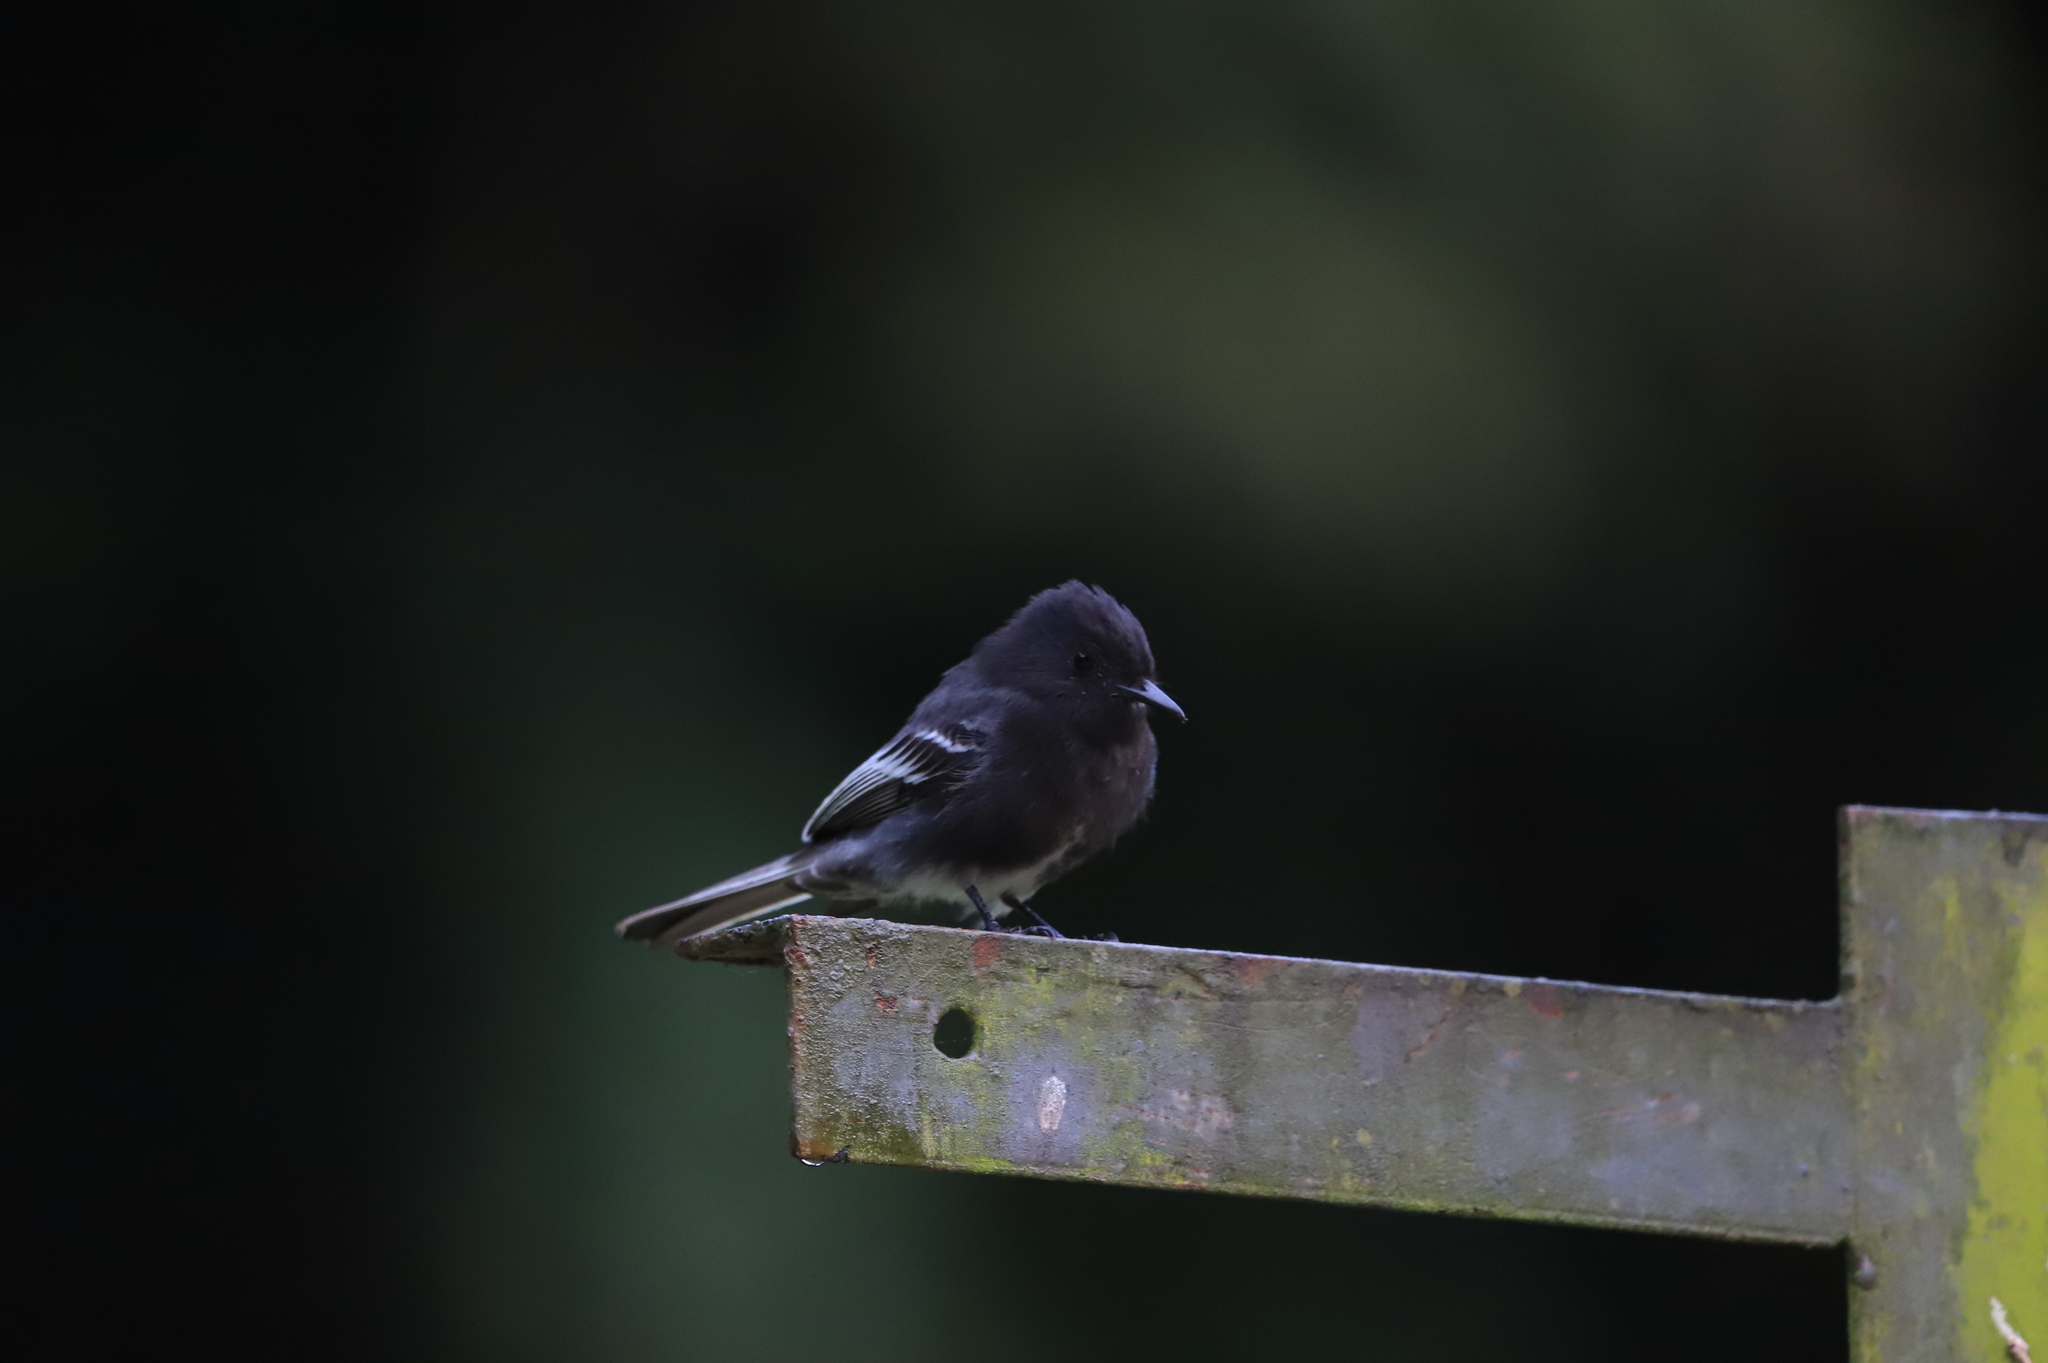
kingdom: Animalia
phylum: Chordata
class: Aves
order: Passeriformes
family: Tyrannidae
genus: Sayornis
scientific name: Sayornis nigricans
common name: Black phoebe
